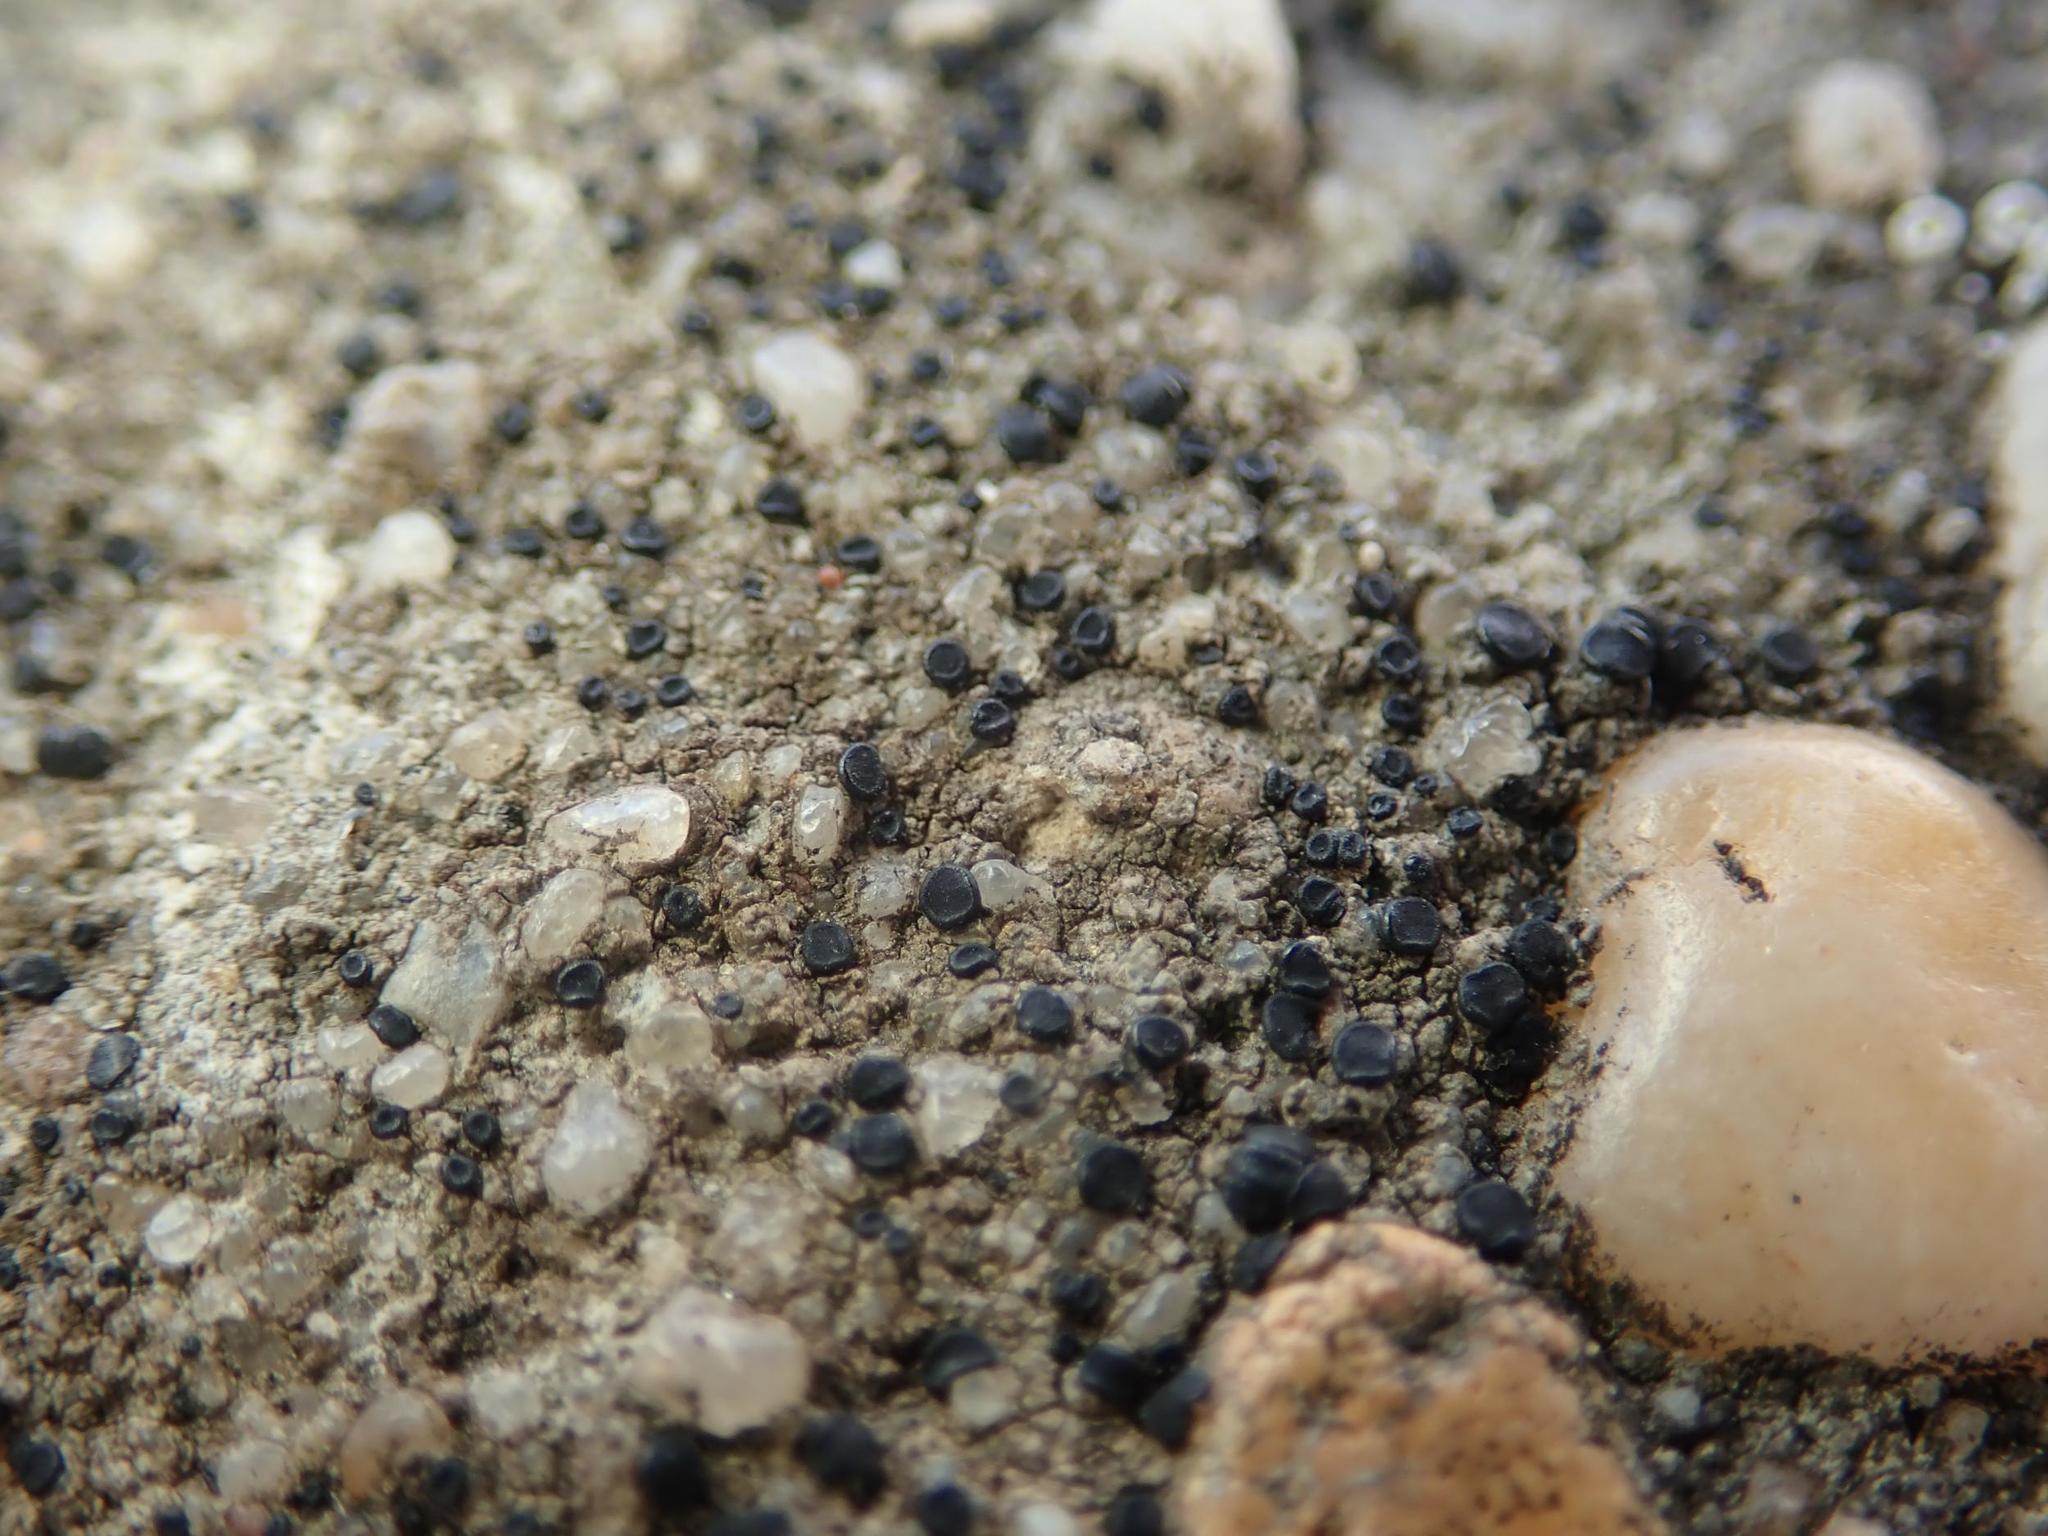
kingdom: Fungi
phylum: Ascomycota
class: Lecanoromycetes
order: Lecanorales
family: Lecanoraceae
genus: Lecidella
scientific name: Lecidella stigmatea
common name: Limestone disc lichen
